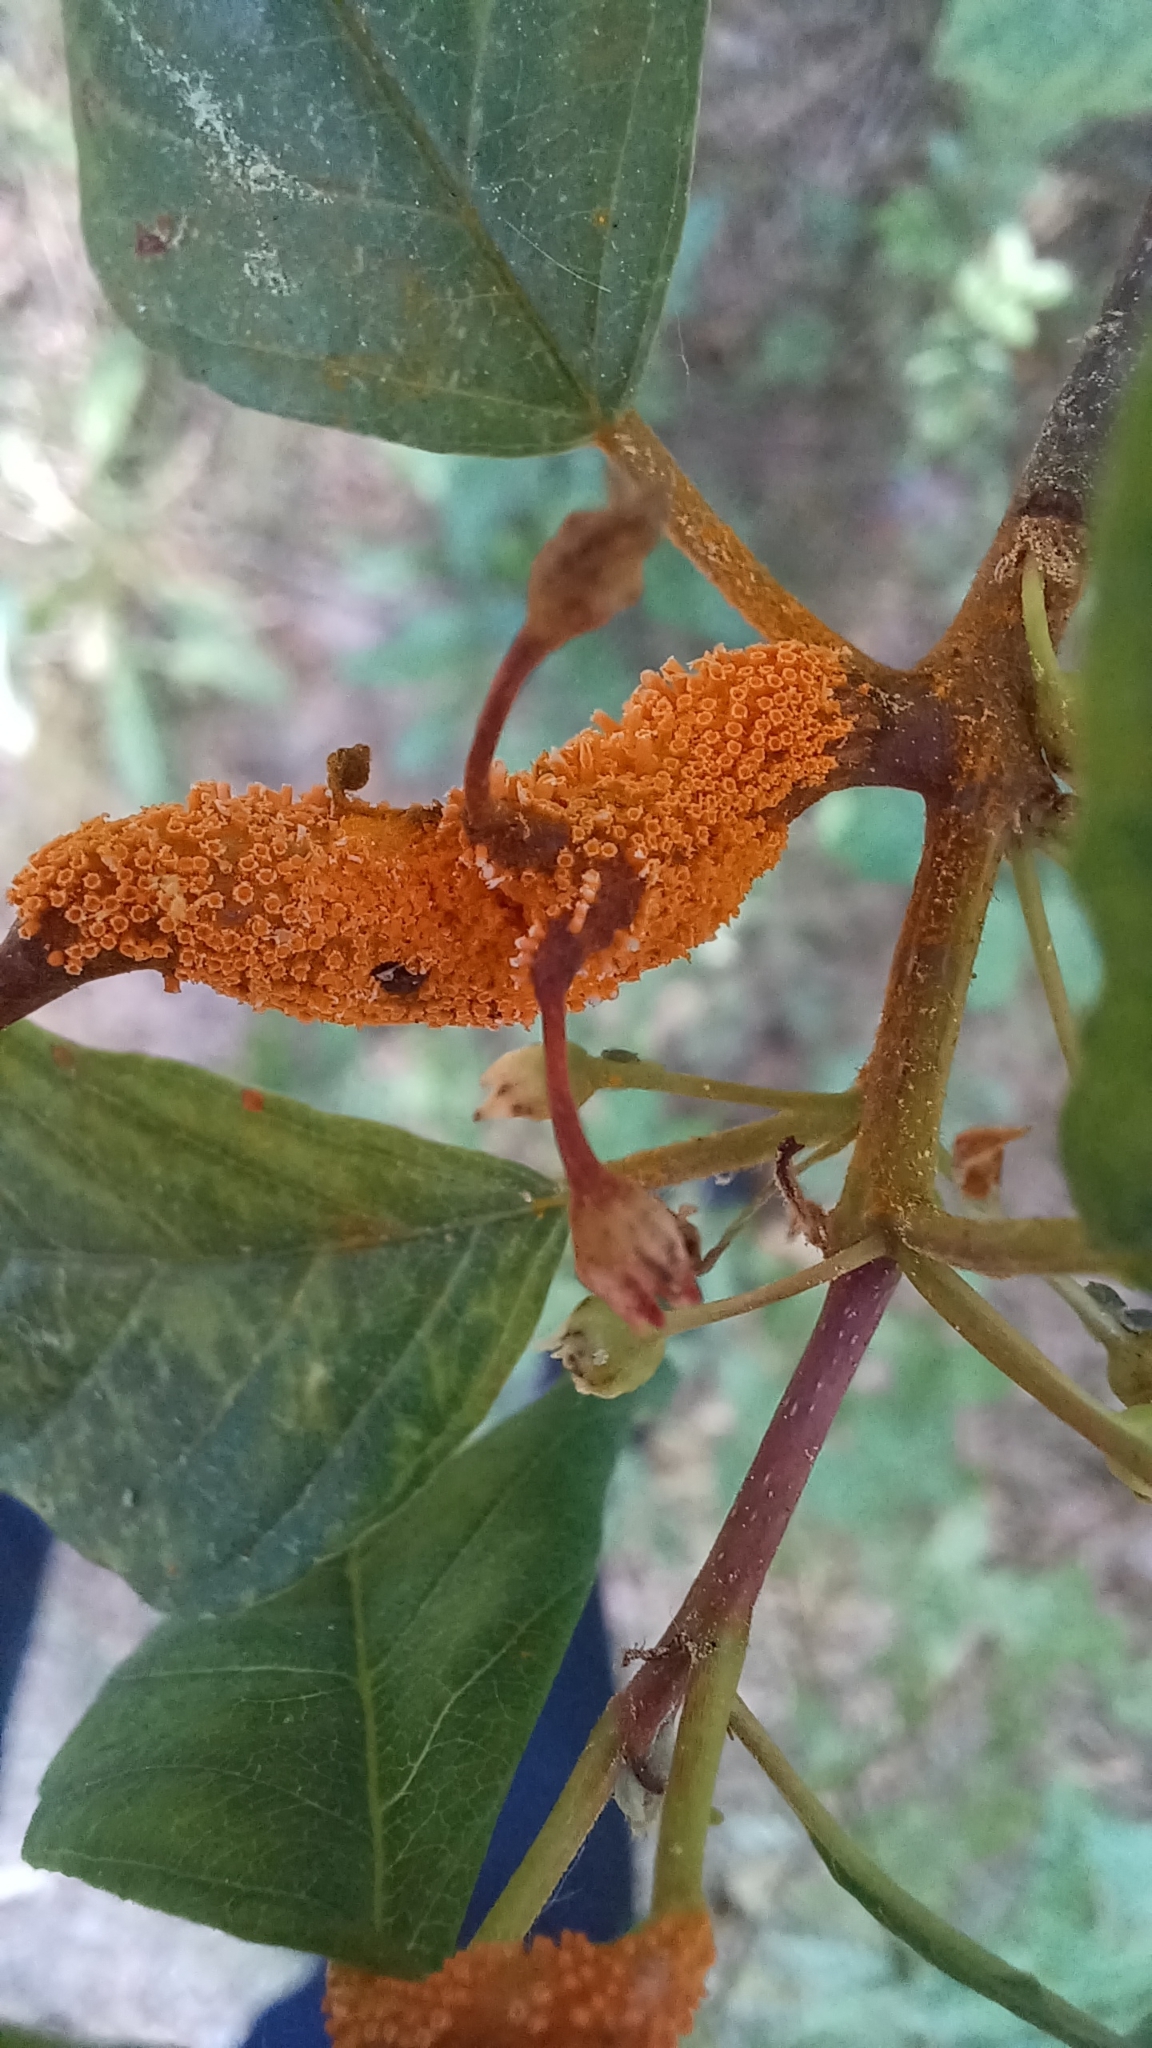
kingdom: Fungi
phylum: Basidiomycota
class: Pucciniomycetes
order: Pucciniales
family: Pucciniaceae
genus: Puccinia
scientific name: Puccinia coronata
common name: Crown rust
